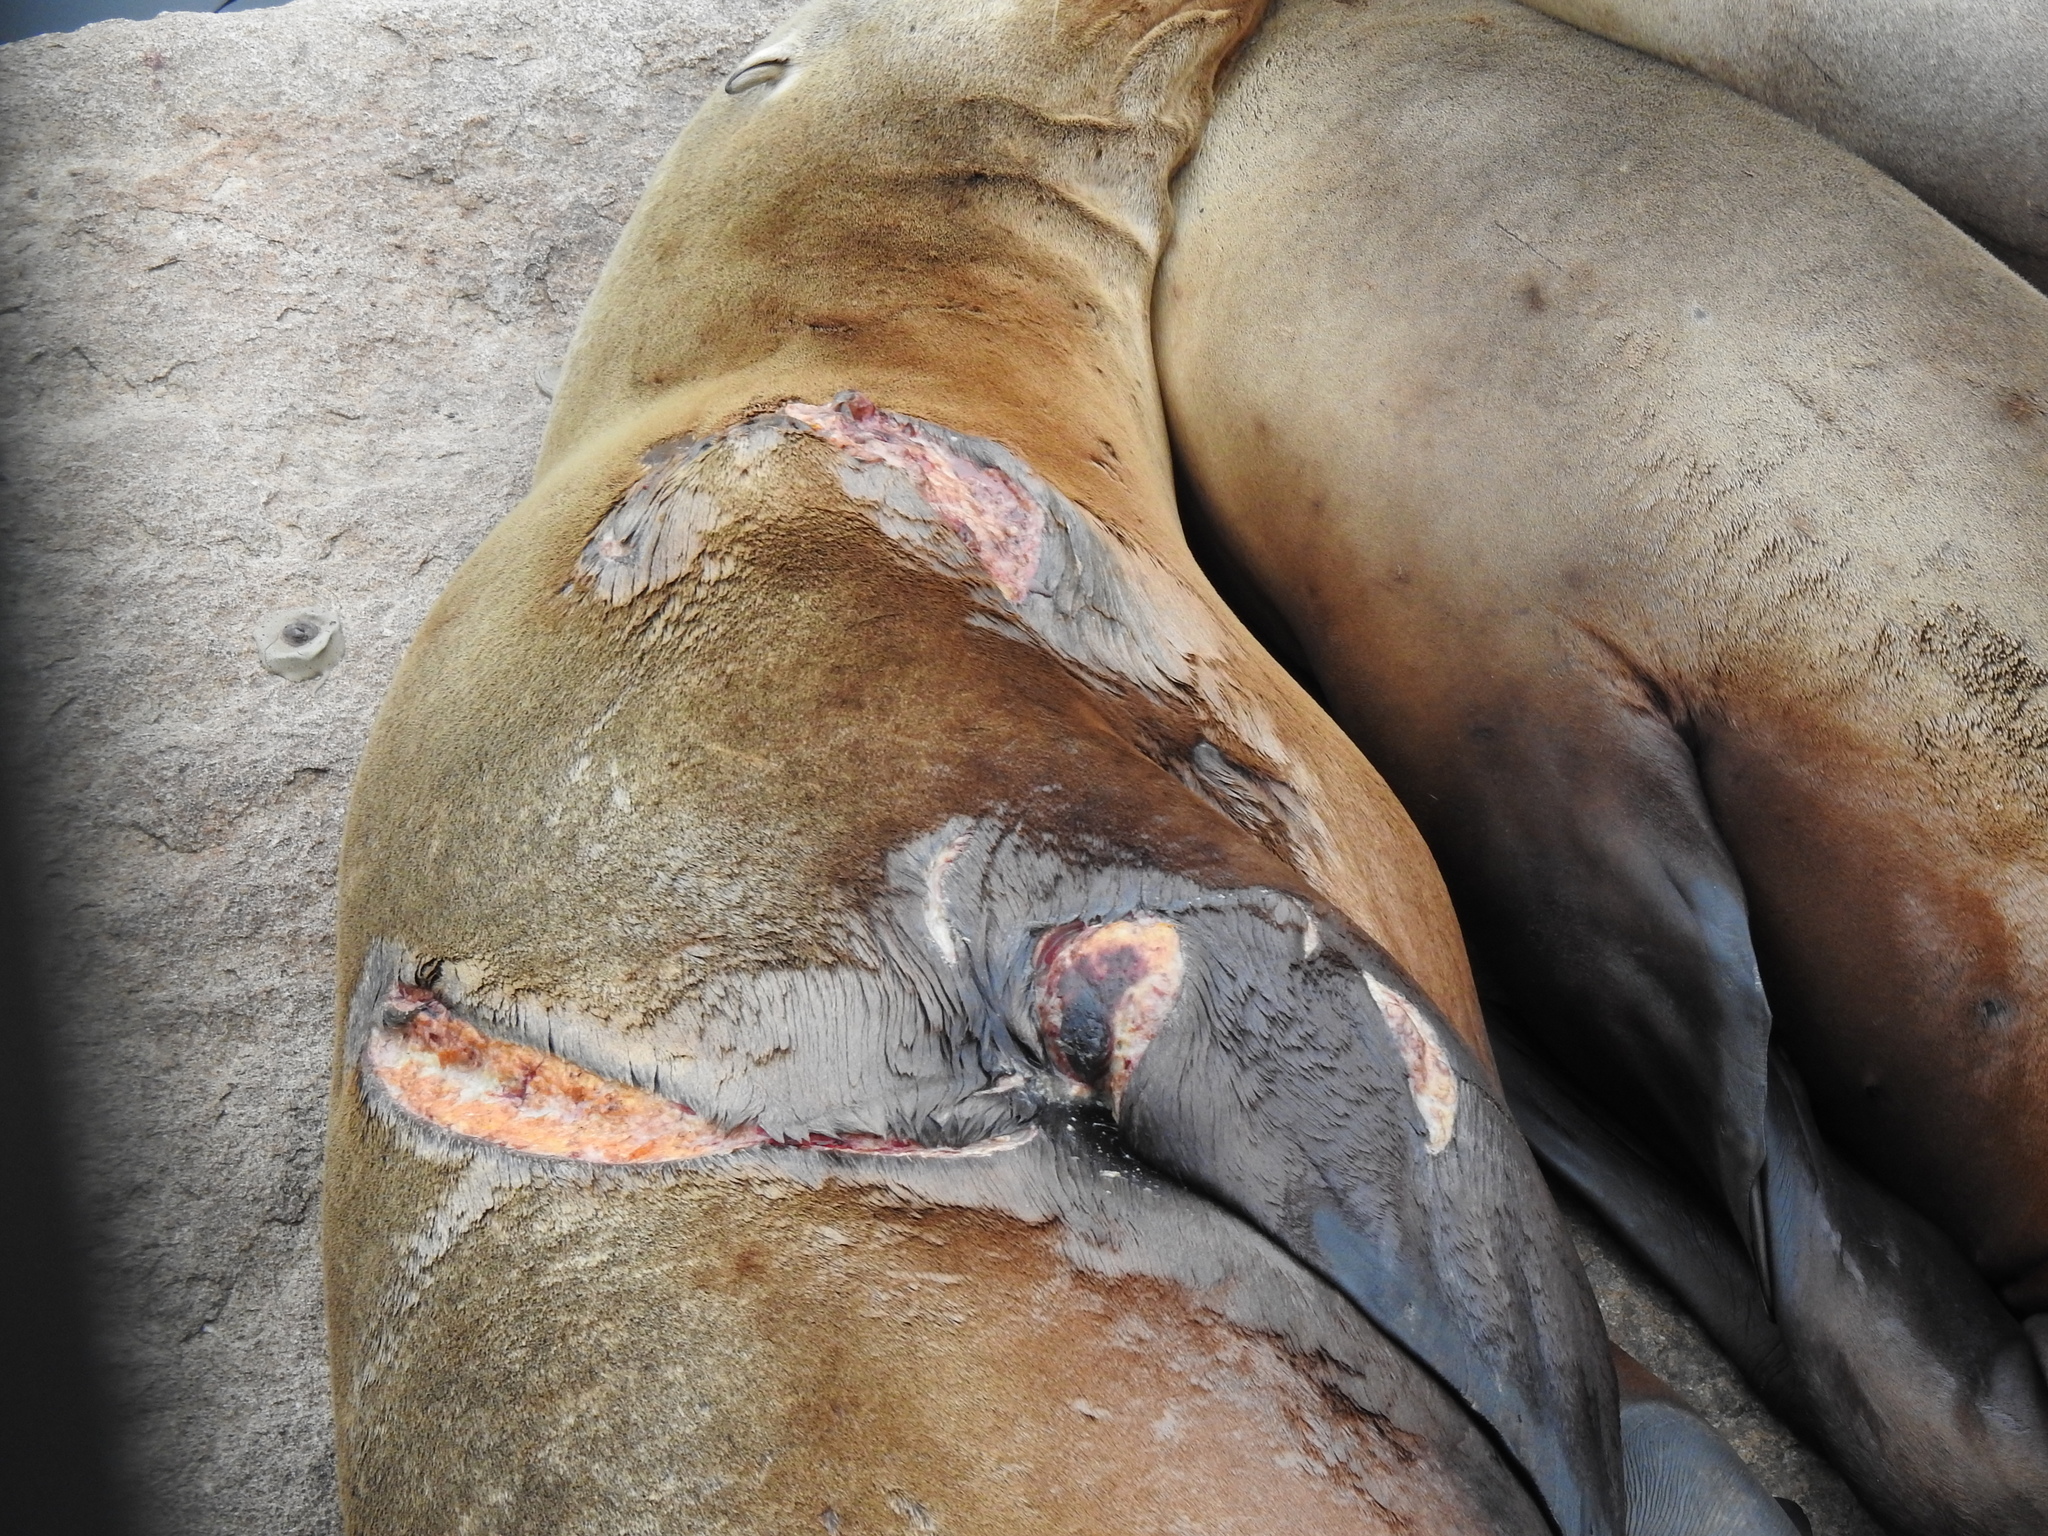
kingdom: Animalia
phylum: Chordata
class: Mammalia
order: Carnivora
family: Otariidae
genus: Zalophus
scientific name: Zalophus californianus
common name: California sea lion
